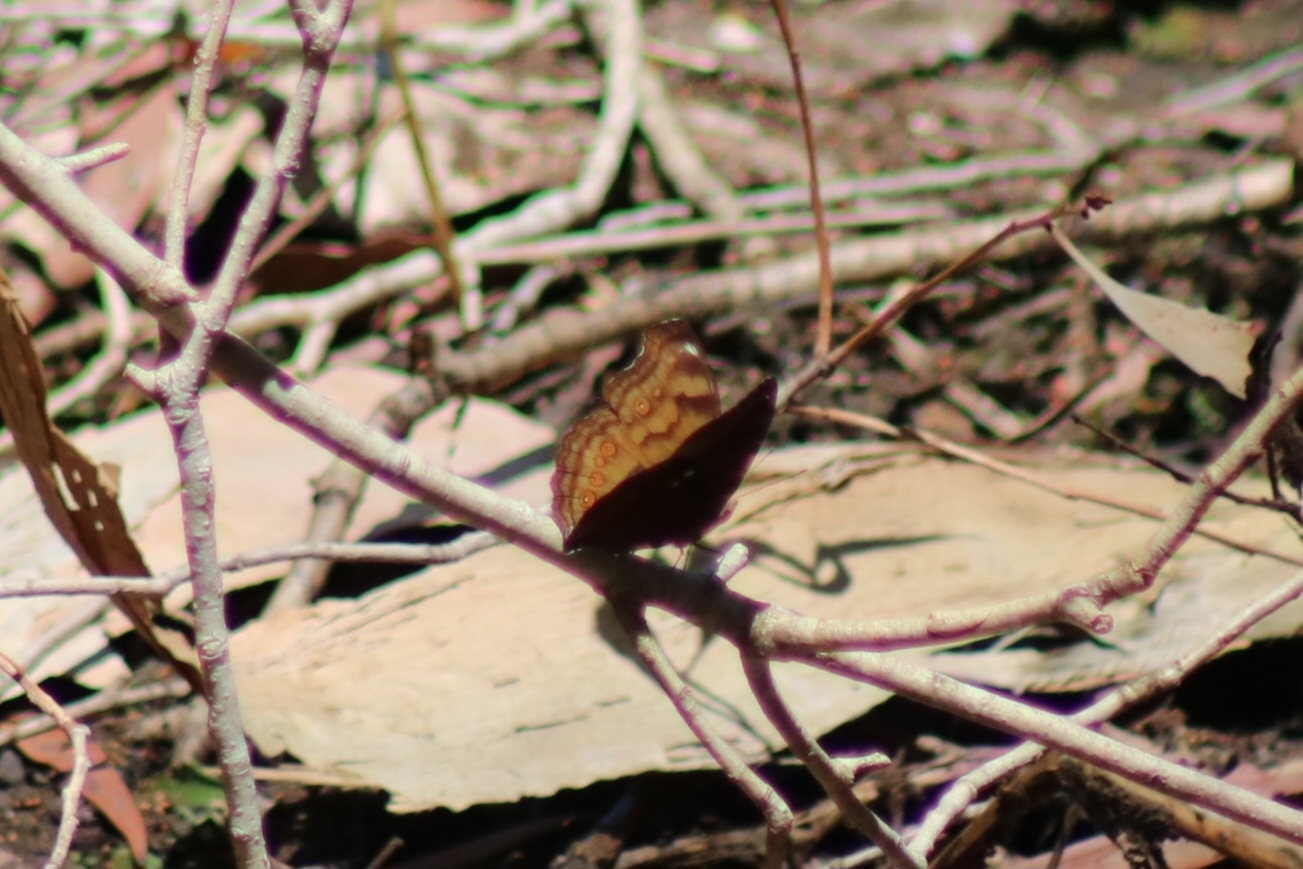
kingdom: Animalia
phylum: Arthropoda
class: Insecta
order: Lepidoptera
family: Nymphalidae
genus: Junonia
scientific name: Junonia hedonia
